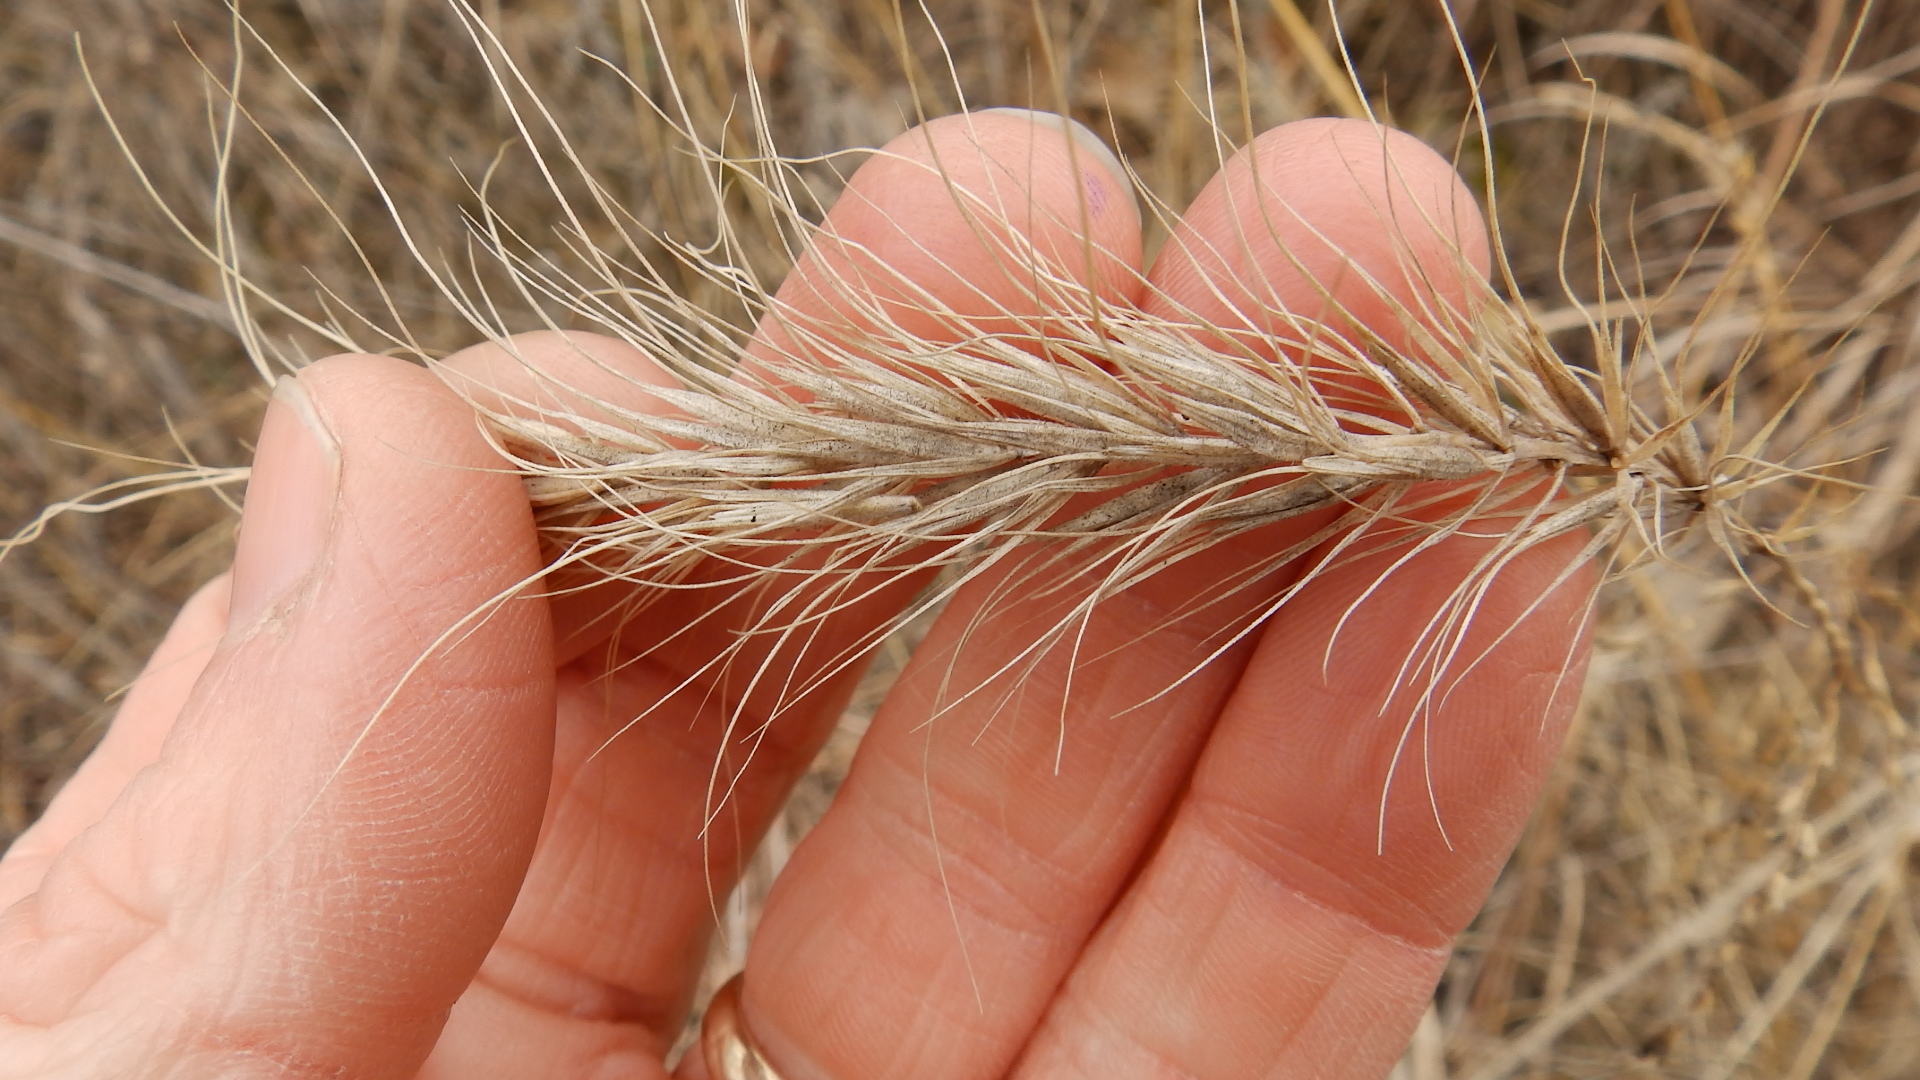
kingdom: Plantae
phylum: Tracheophyta
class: Liliopsida
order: Poales
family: Poaceae
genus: Elymus
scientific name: Elymus canadensis
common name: Canada wild rye
